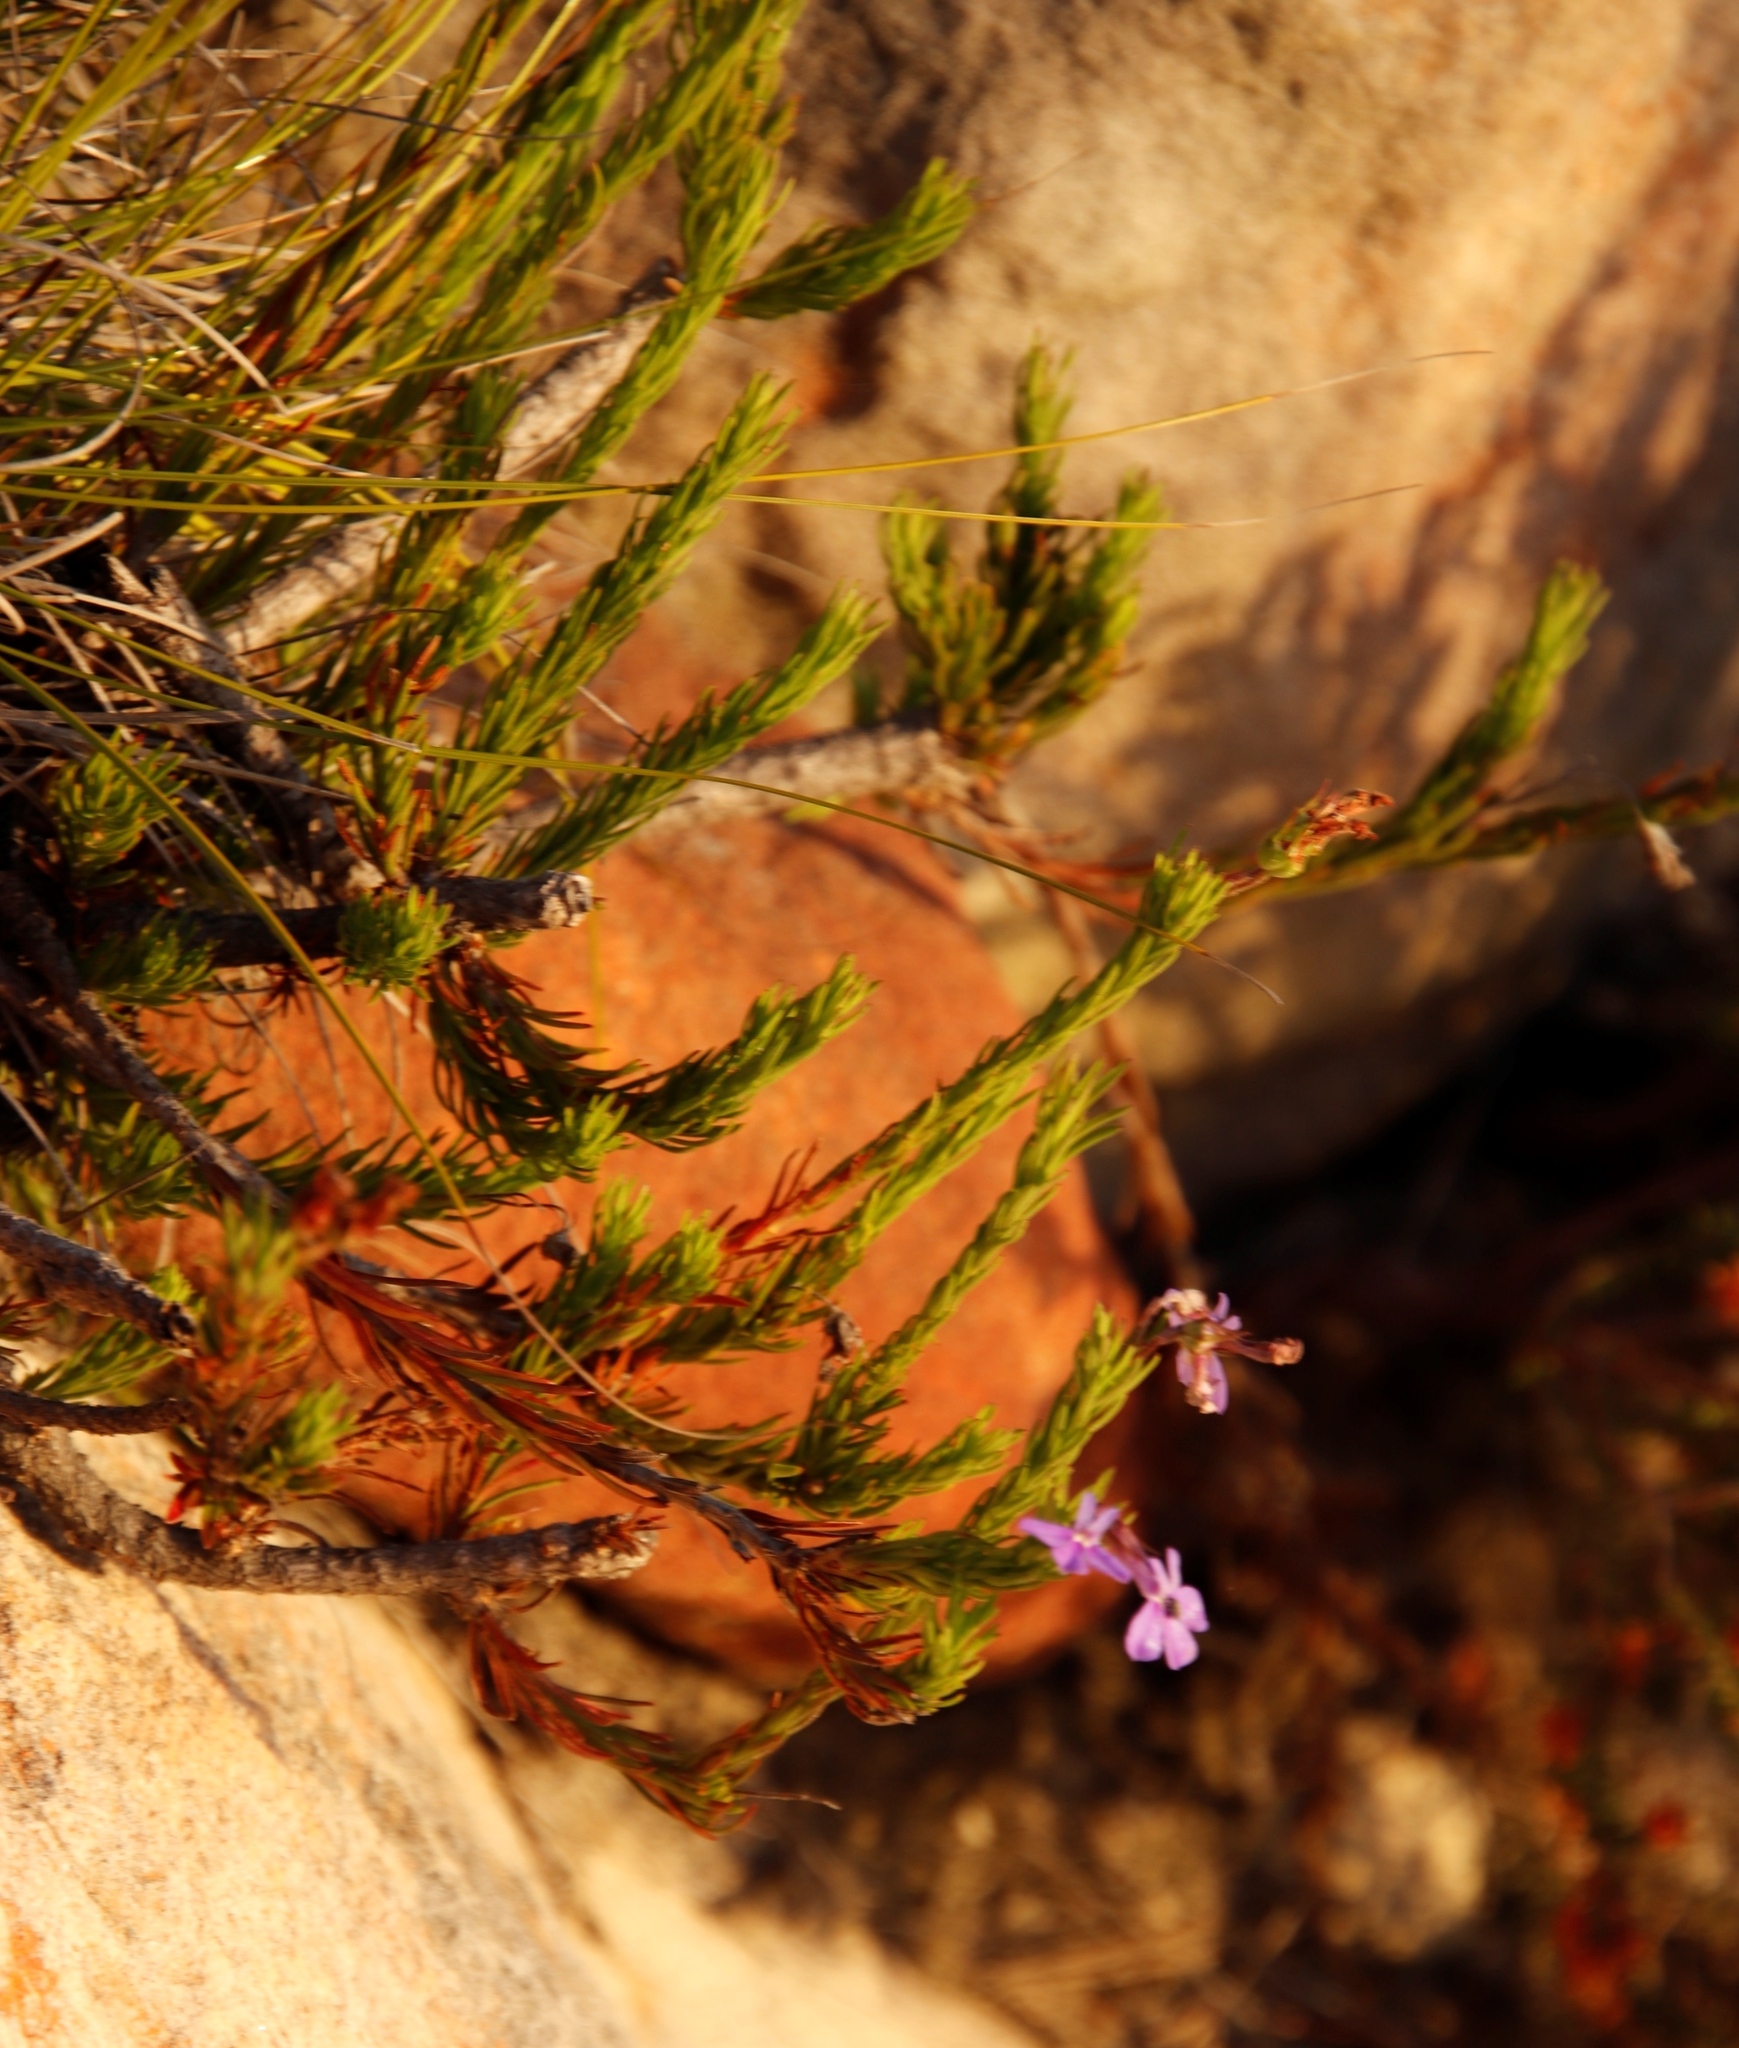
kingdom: Plantae
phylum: Tracheophyta
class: Magnoliopsida
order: Asterales
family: Campanulaceae
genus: Lobelia
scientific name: Lobelia pinifolia
